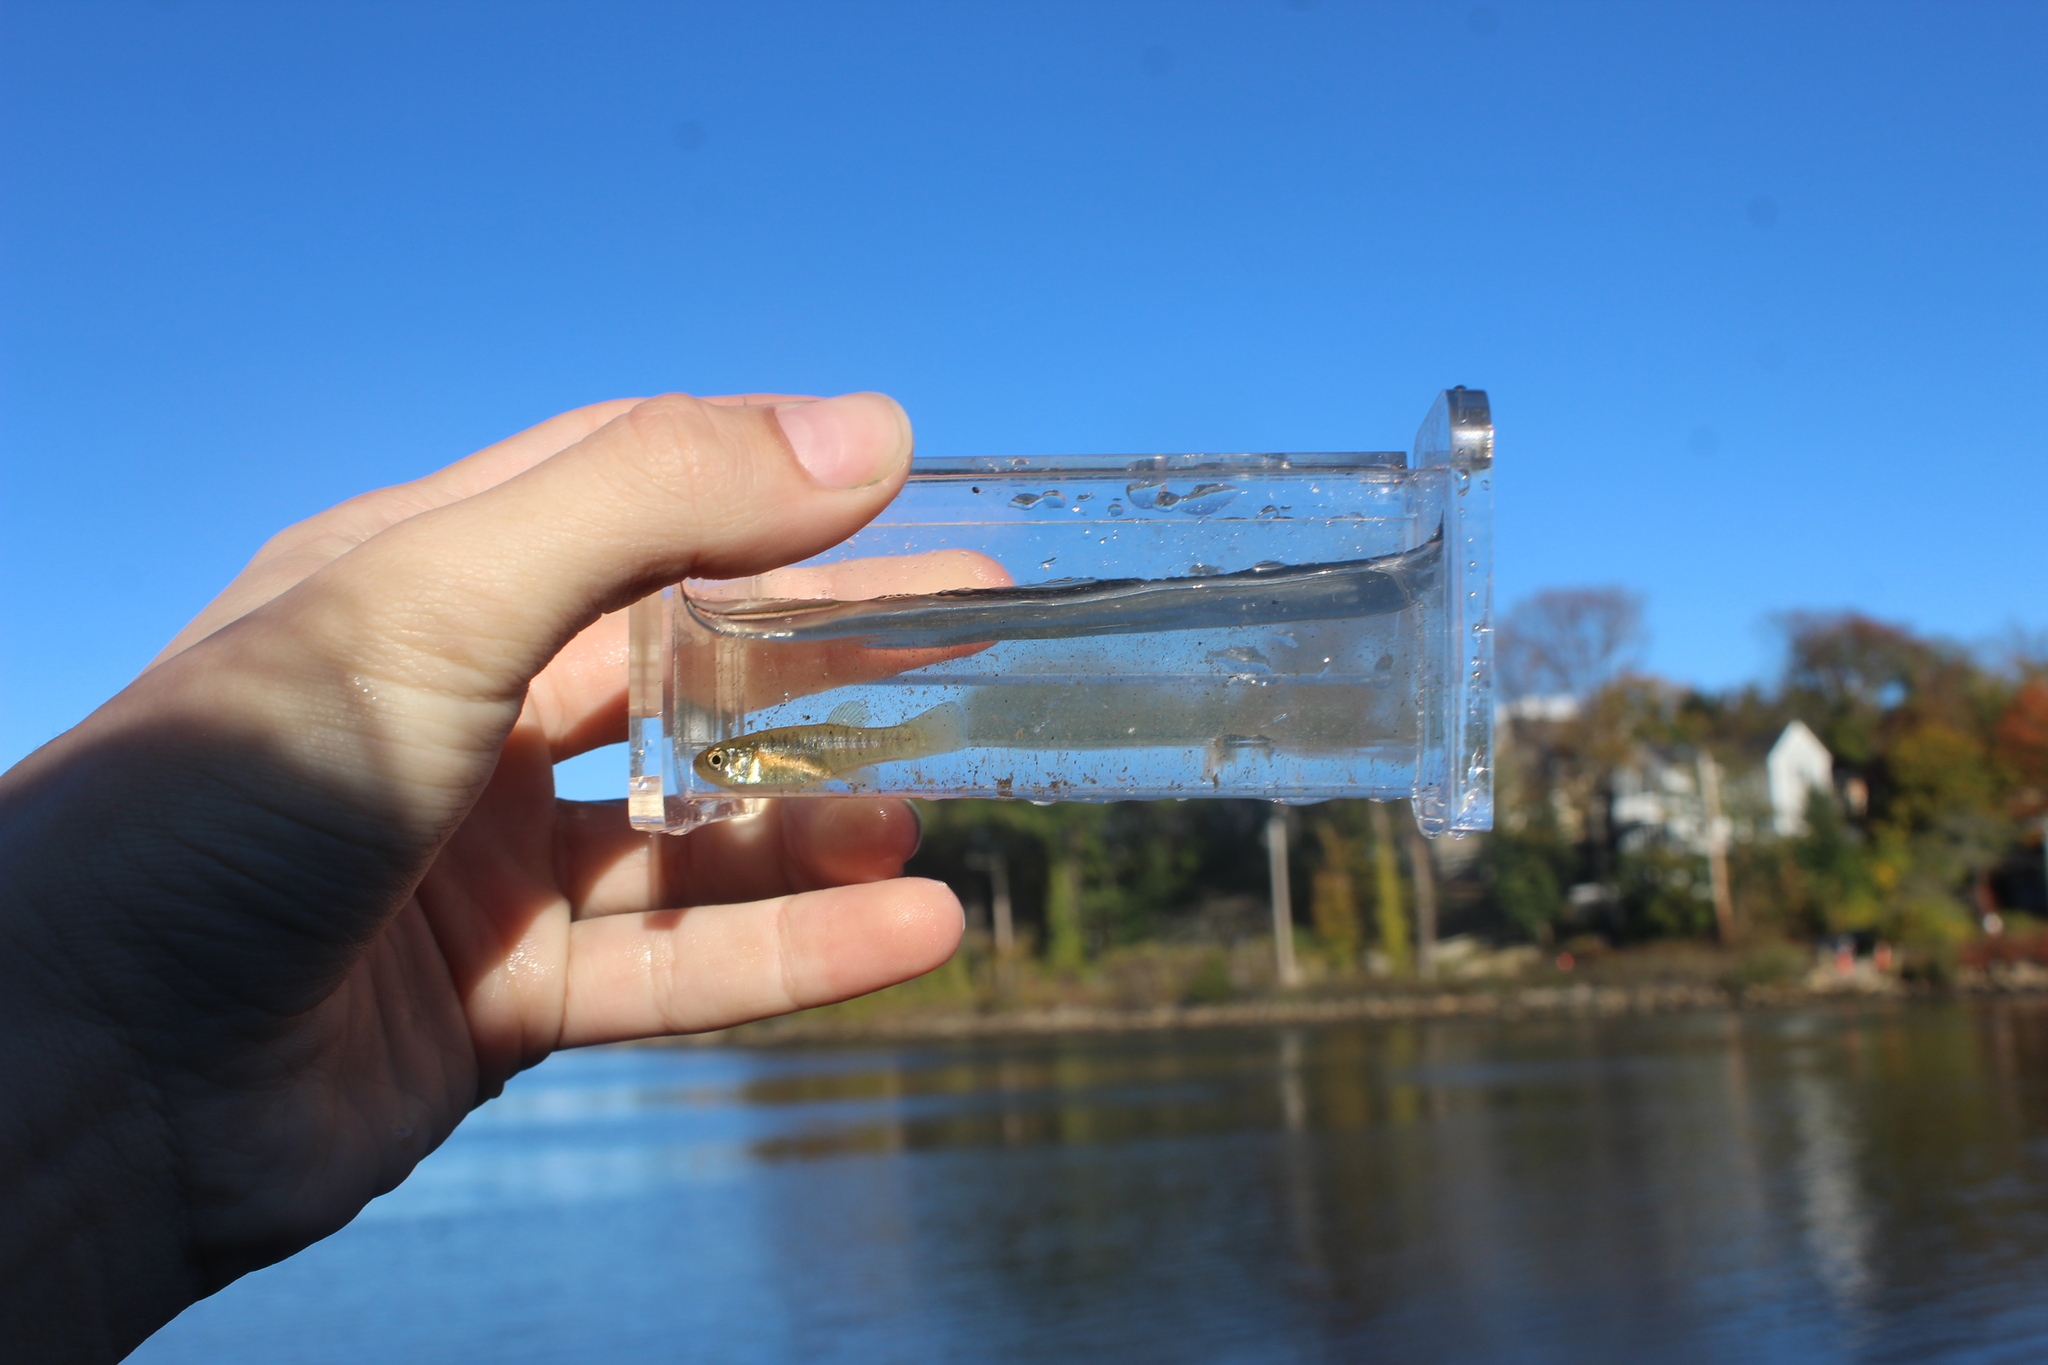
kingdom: Animalia
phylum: Chordata
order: Cyprinodontiformes
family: Fundulidae
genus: Fundulus
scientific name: Fundulus heteroclitus
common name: Mummichog
